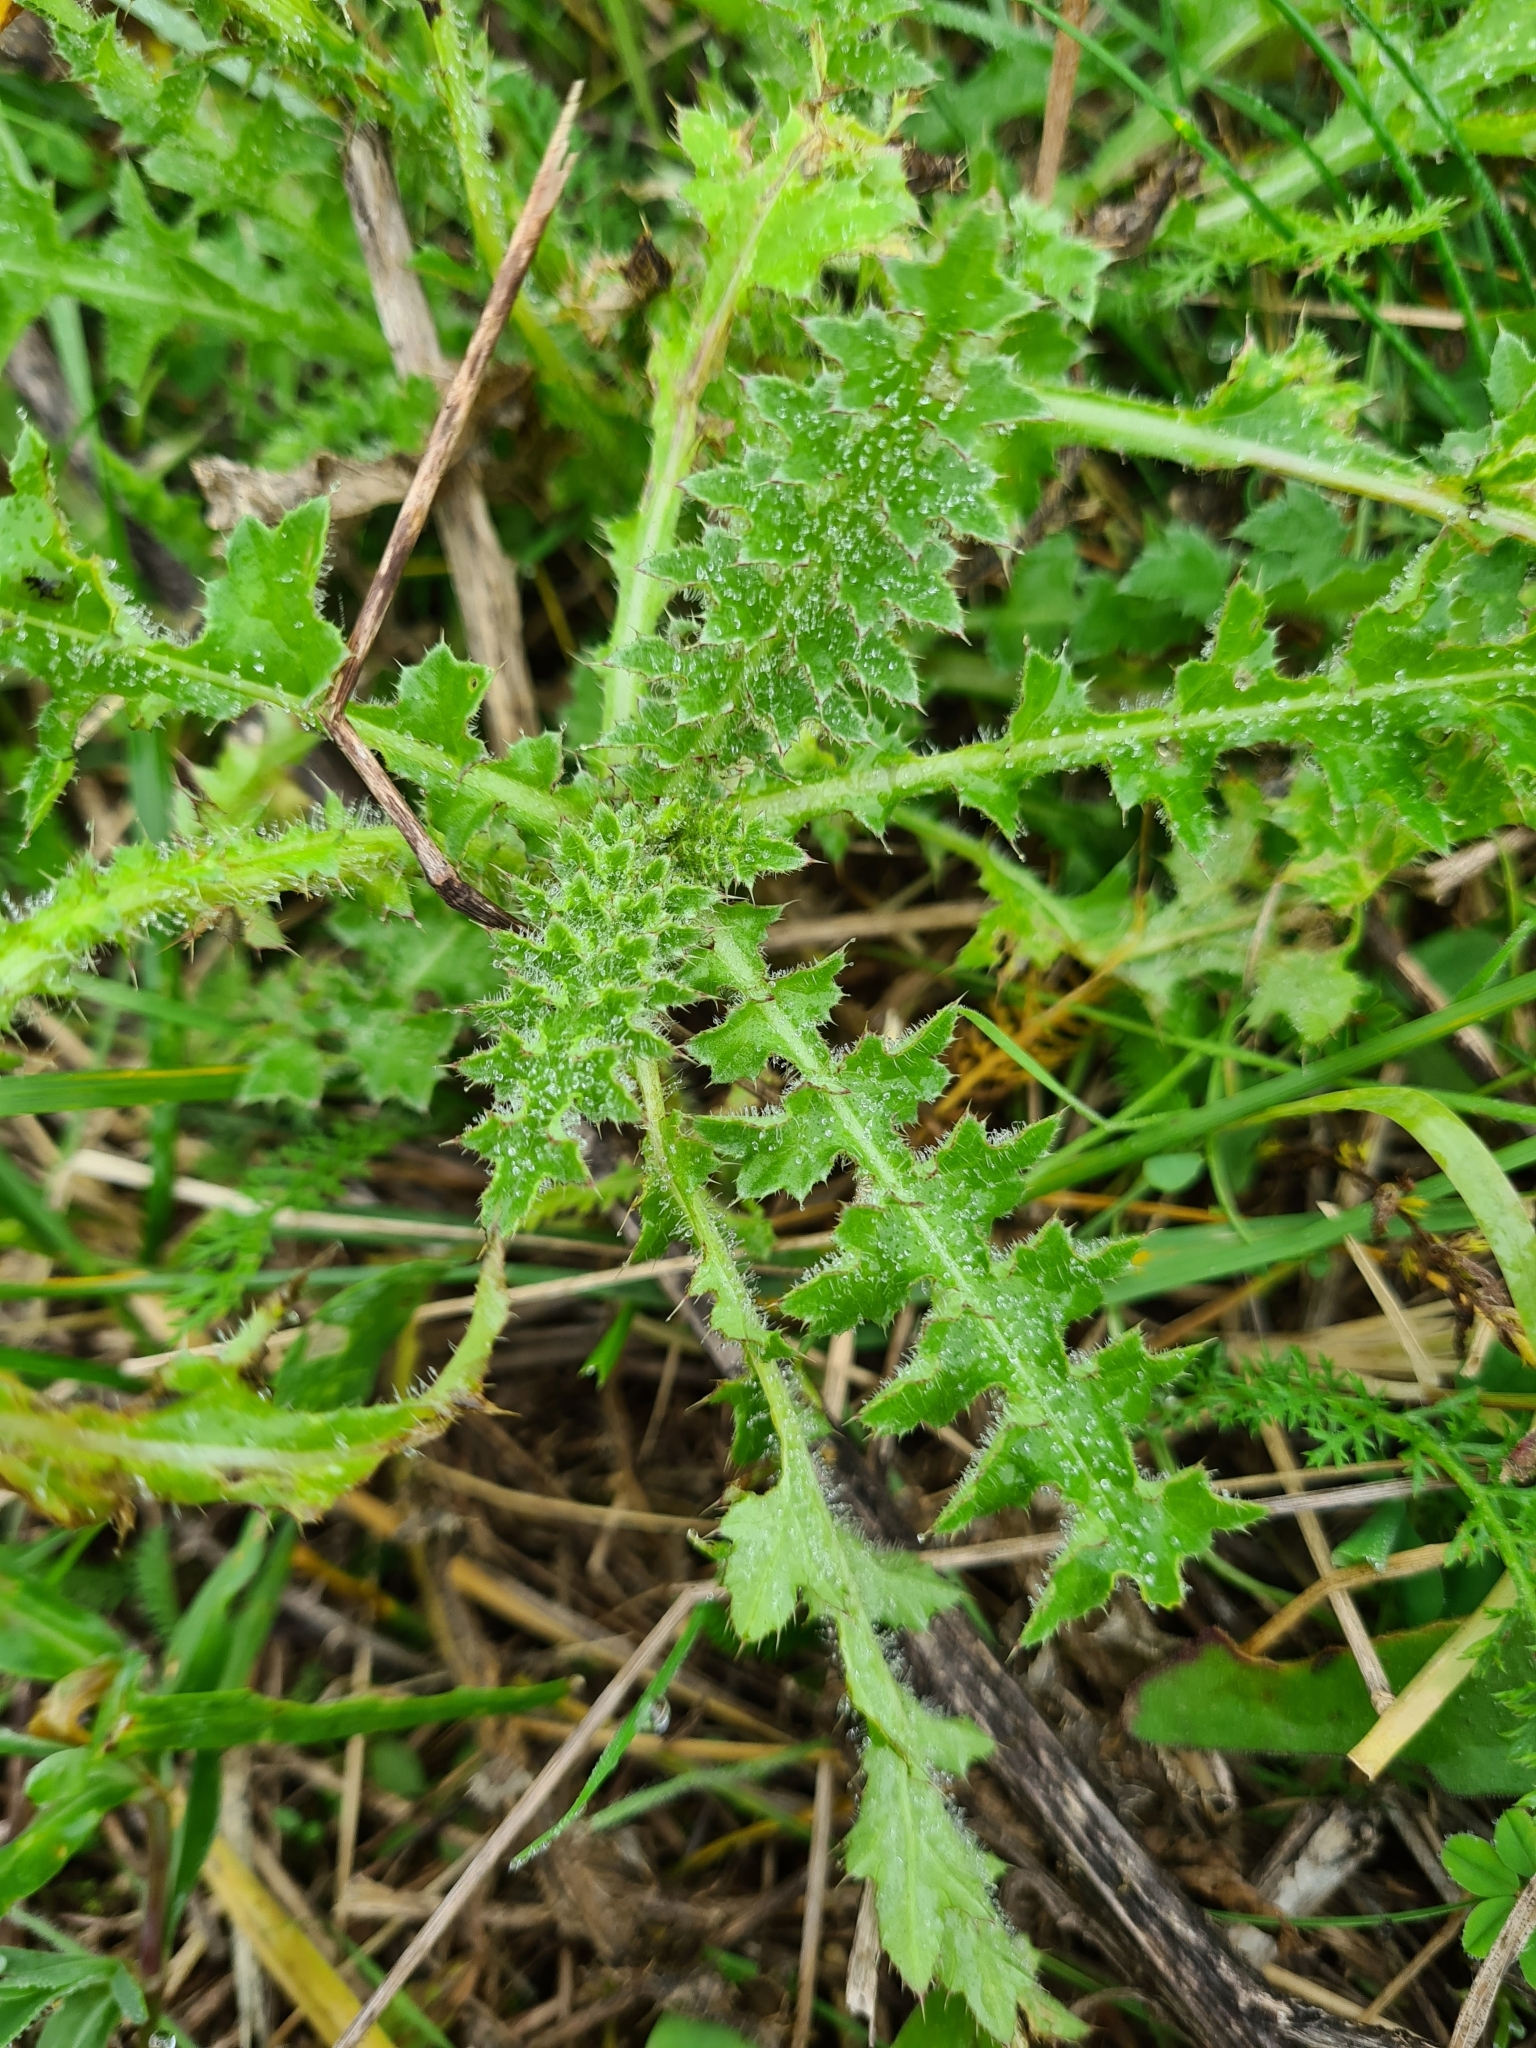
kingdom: Plantae
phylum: Tracheophyta
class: Magnoliopsida
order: Asterales
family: Asteraceae
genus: Carduus
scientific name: Carduus acanthoides
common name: Plumeless thistle
